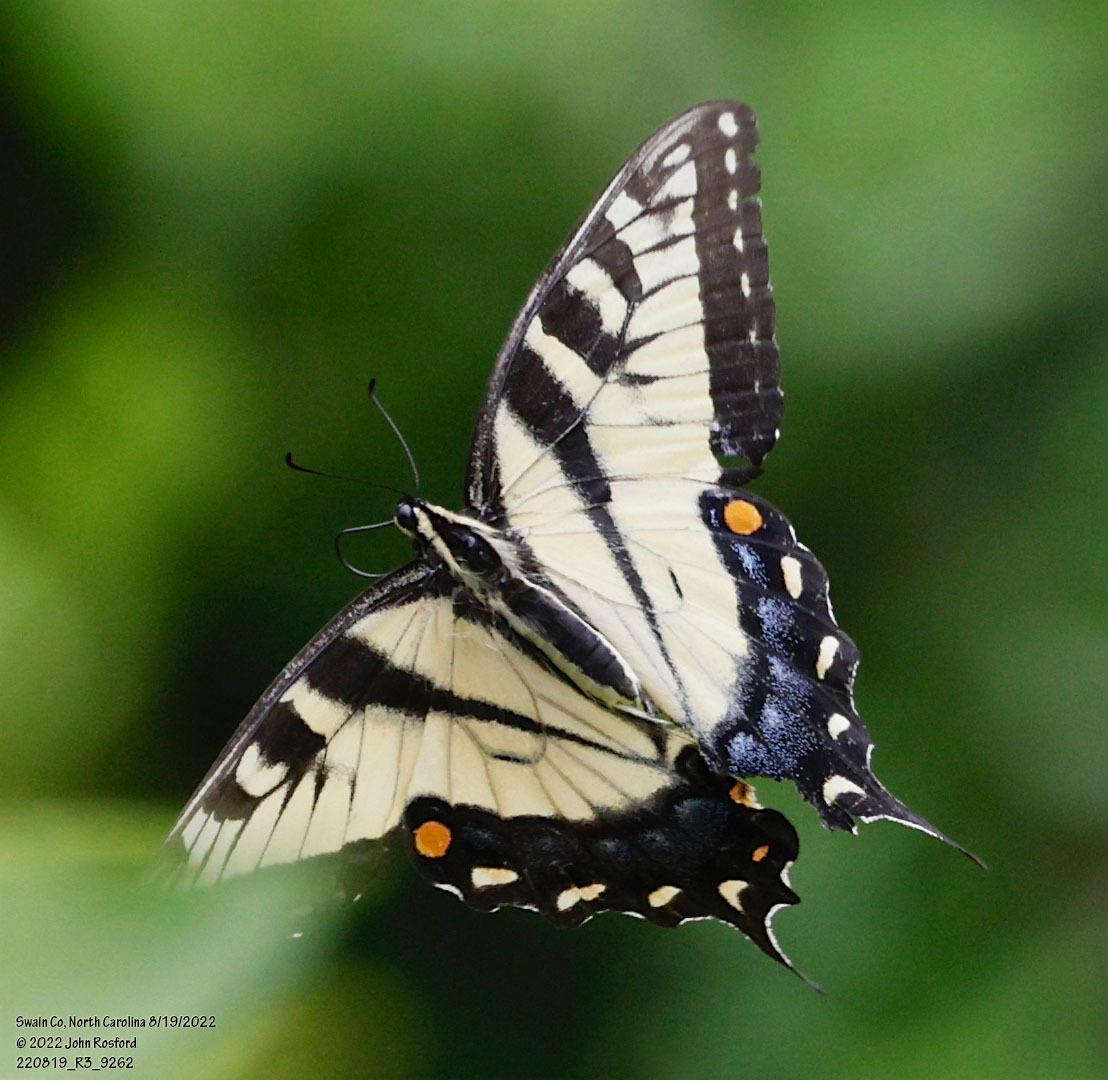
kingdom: Animalia
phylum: Arthropoda
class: Insecta
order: Lepidoptera
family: Papilionidae
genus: Papilio
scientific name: Papilio glaucus
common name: Tiger swallowtail
